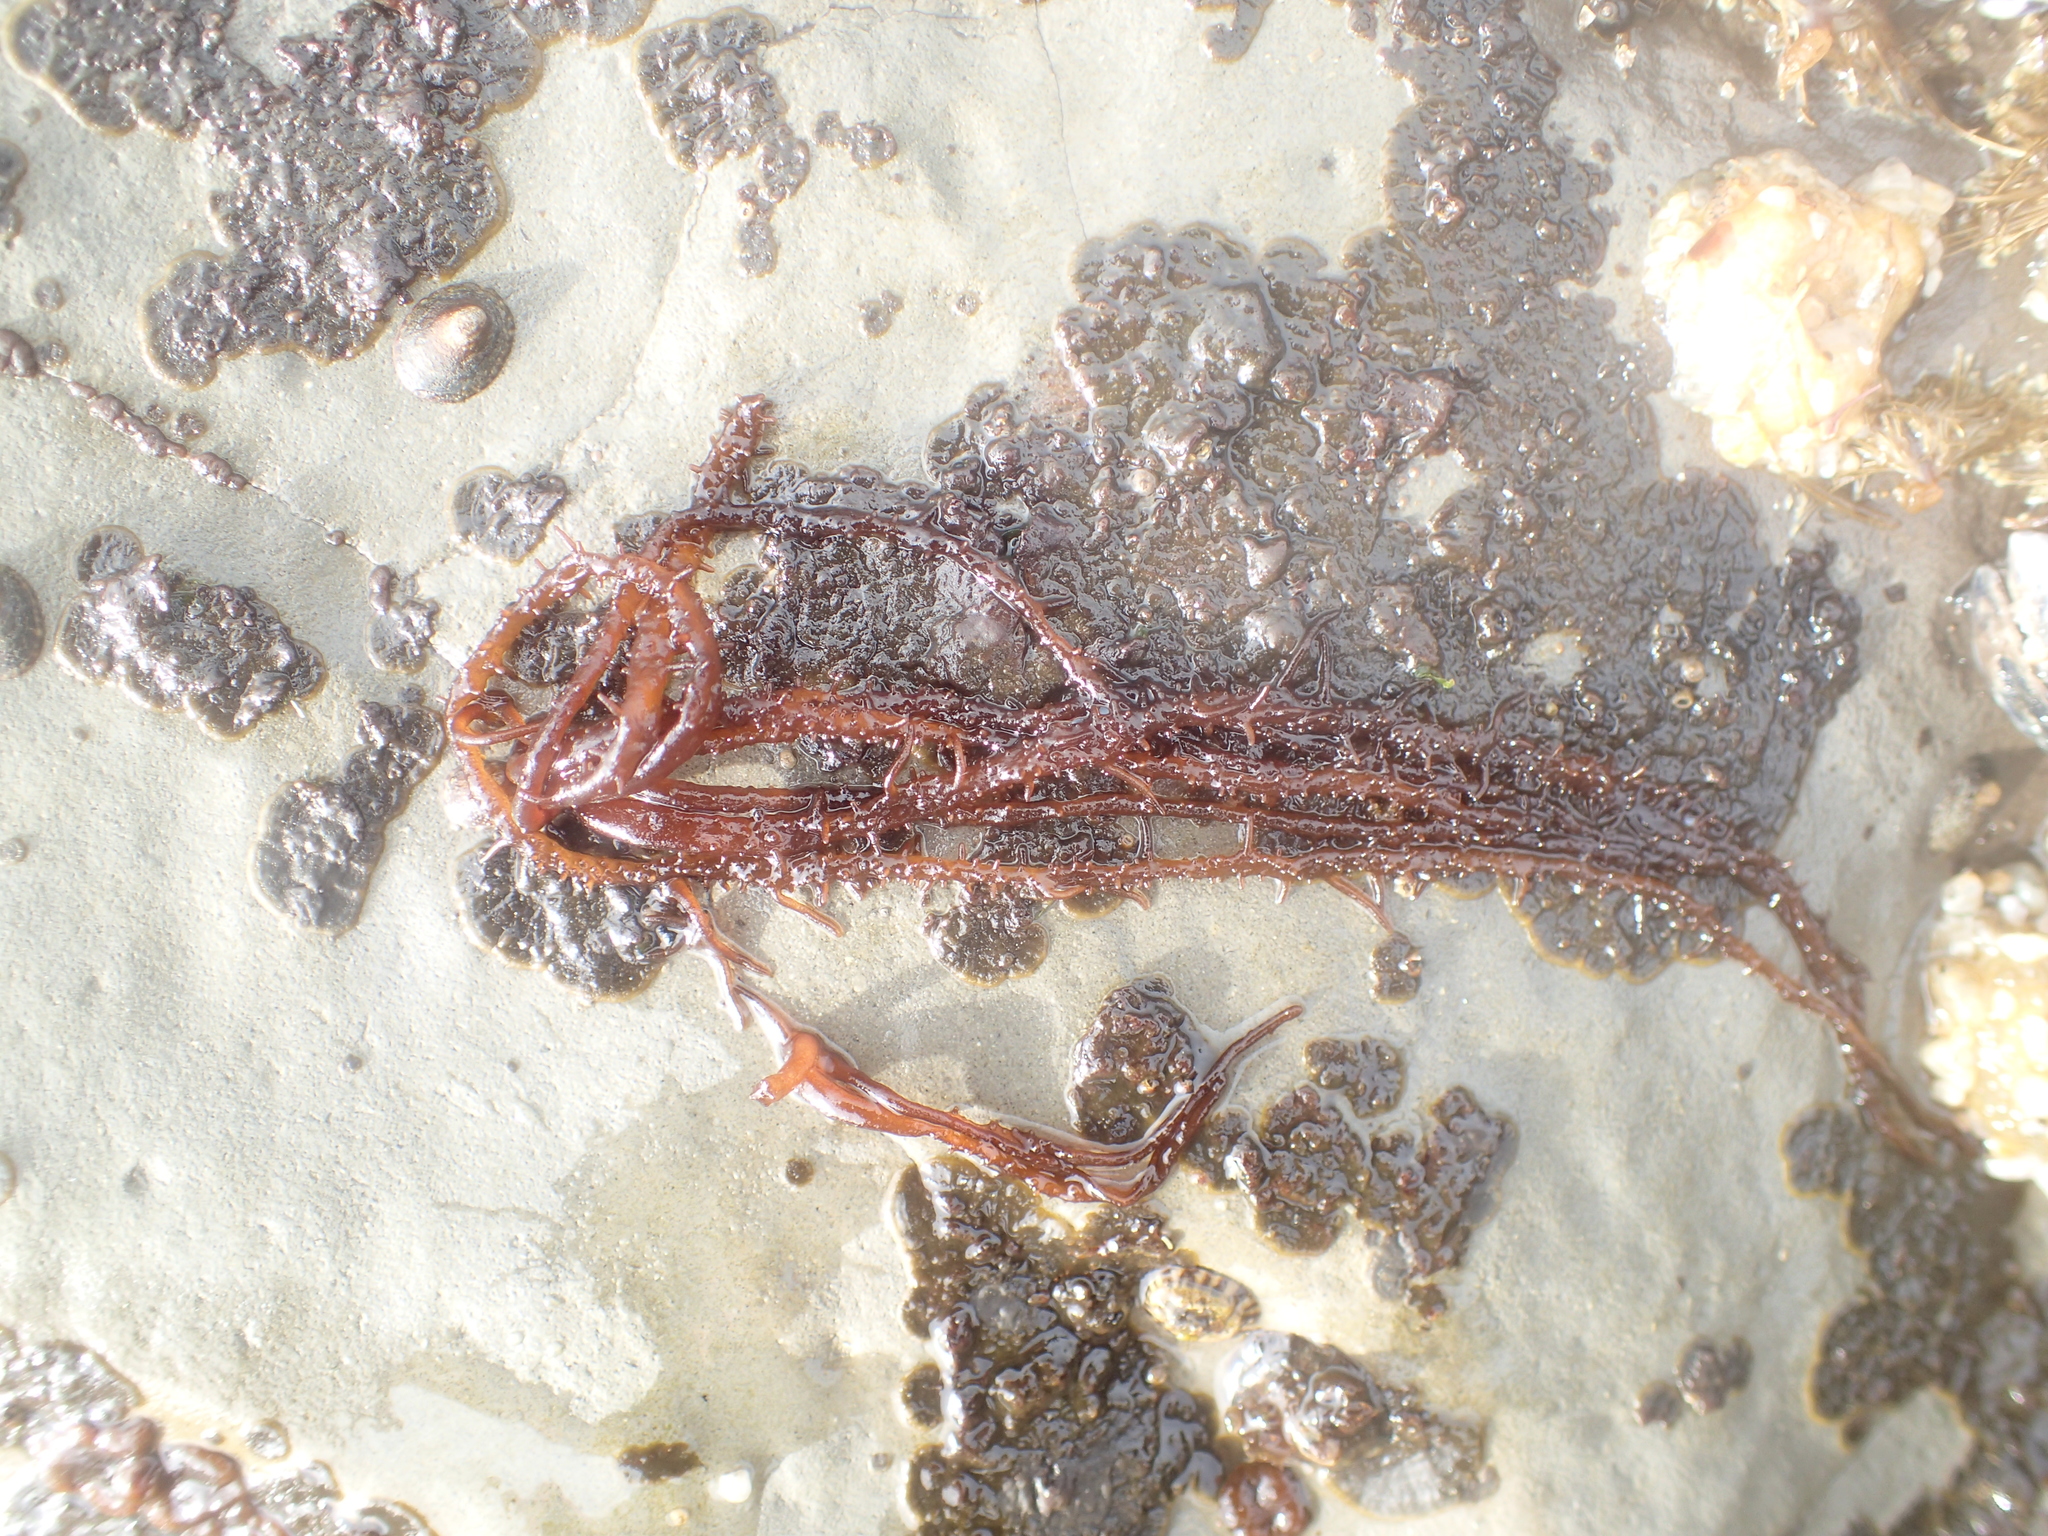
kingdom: Plantae
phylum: Rhodophyta
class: Florideophyceae
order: Nemaliales
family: Liagoraceae
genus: Cumagloia
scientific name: Cumagloia andersonii
